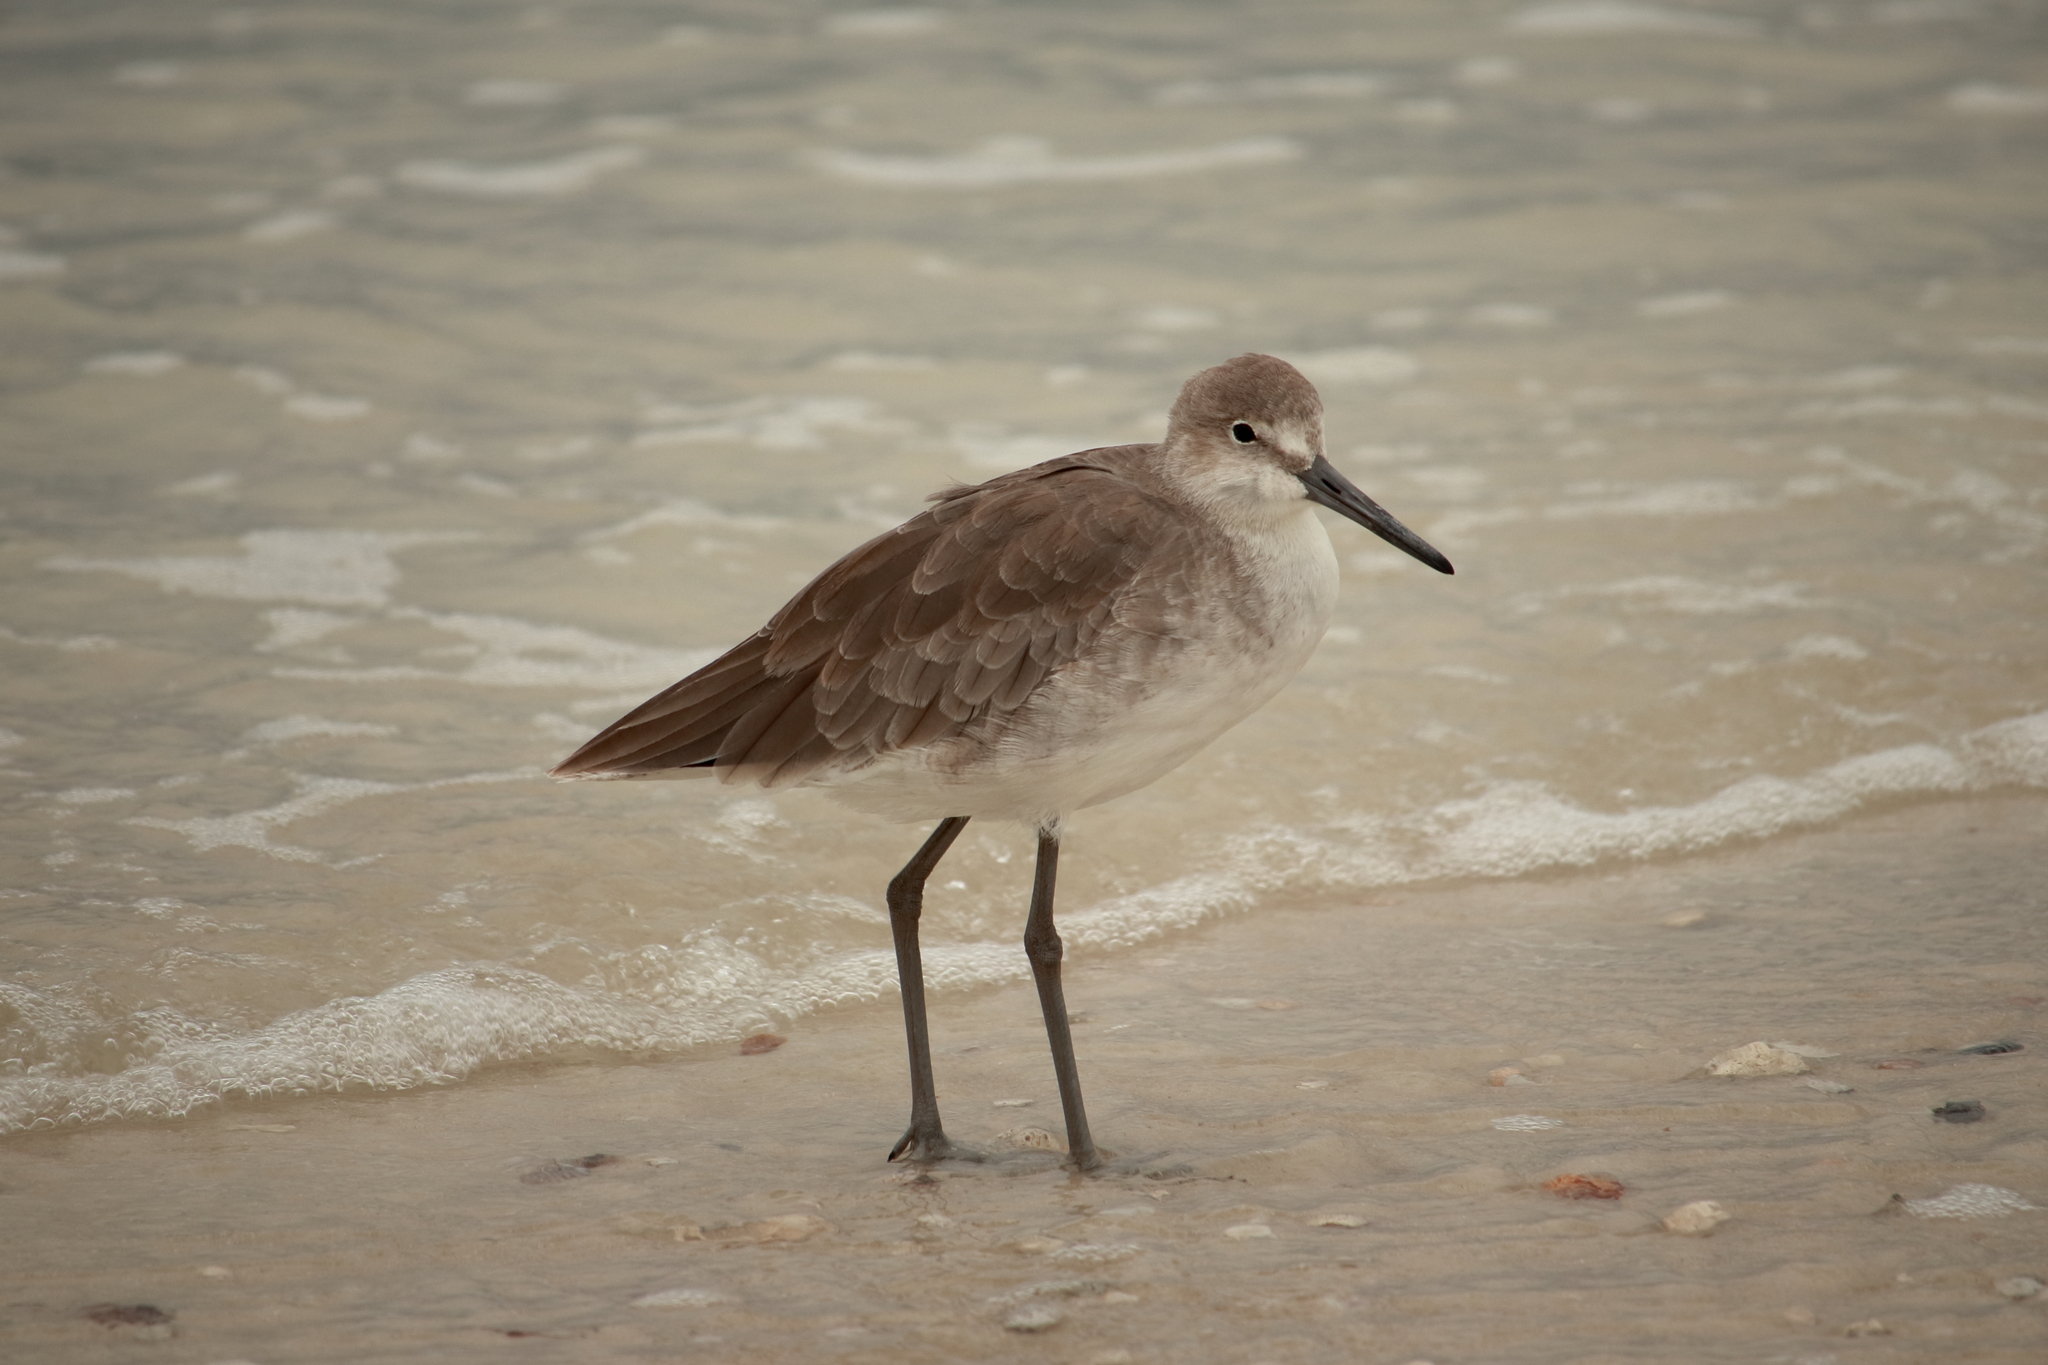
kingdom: Animalia
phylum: Chordata
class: Aves
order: Charadriiformes
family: Scolopacidae
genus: Tringa
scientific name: Tringa semipalmata
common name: Willet
